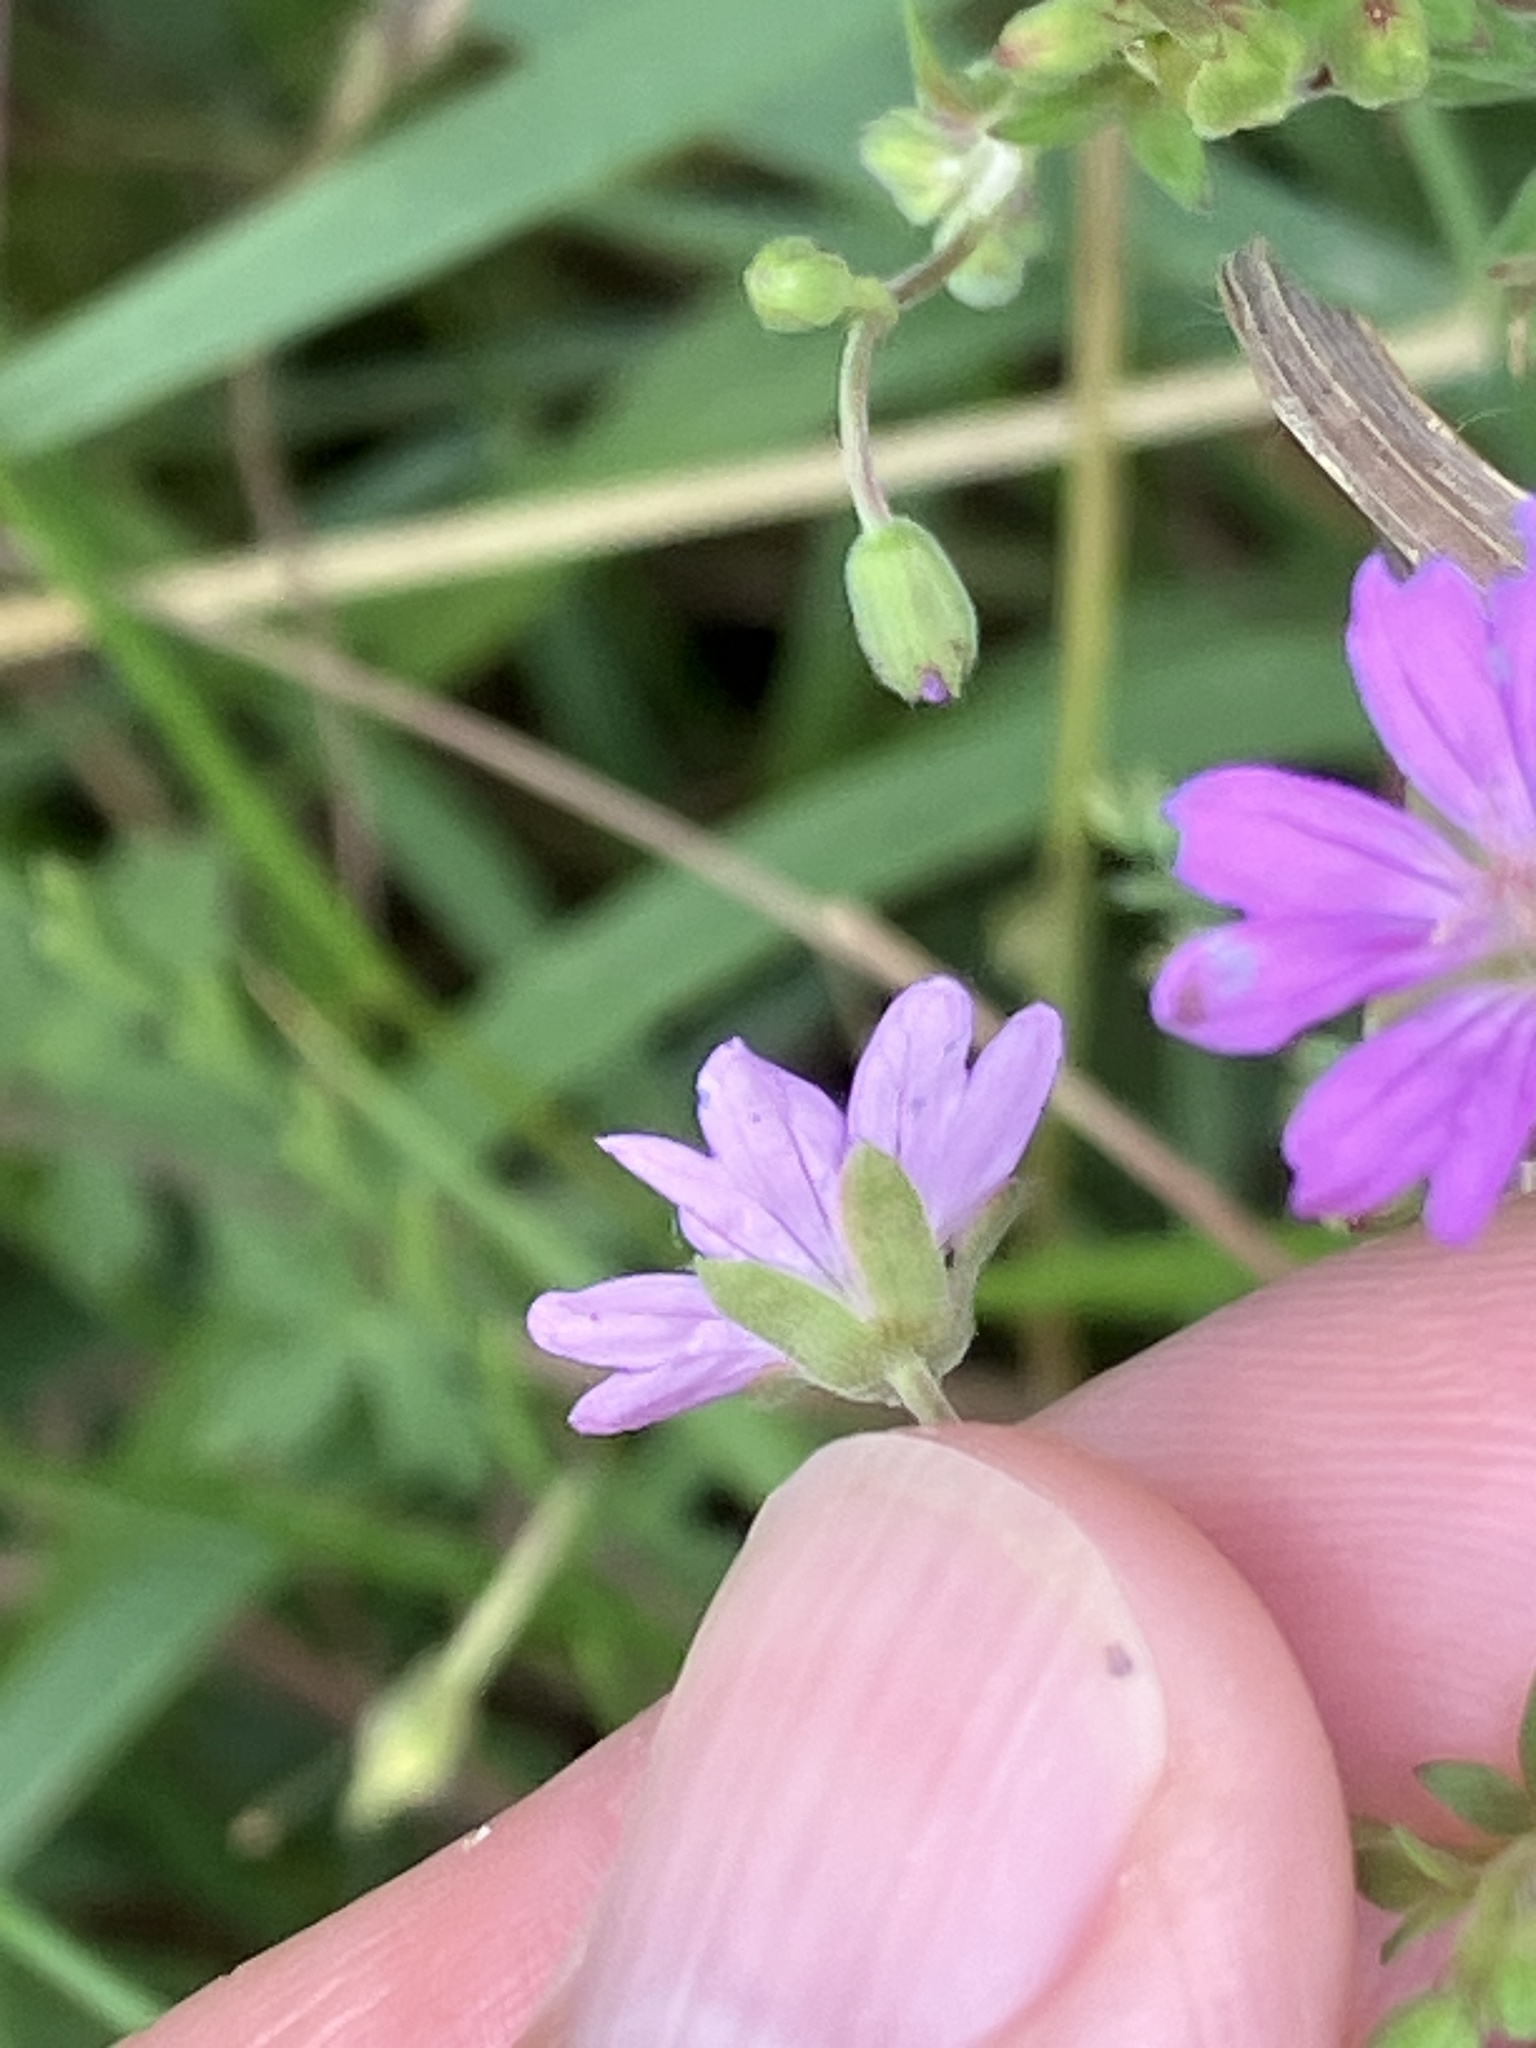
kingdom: Plantae
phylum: Tracheophyta
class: Magnoliopsida
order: Geraniales
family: Geraniaceae
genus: Geranium
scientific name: Geranium pyrenaicum
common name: Hedgerow crane's-bill
